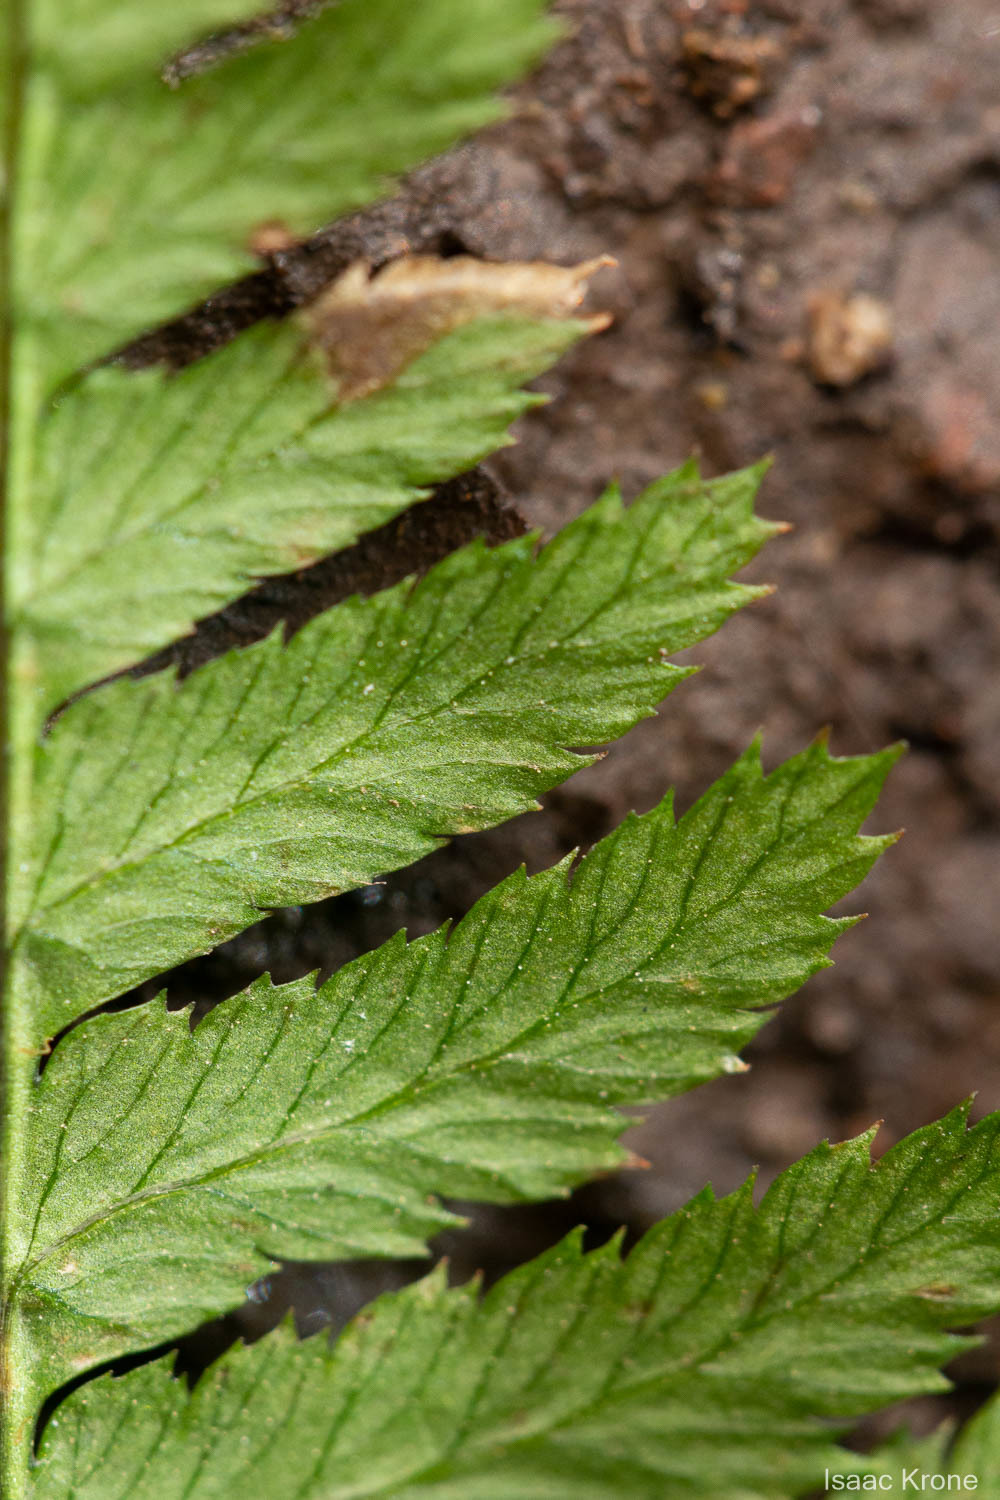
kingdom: Plantae
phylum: Tracheophyta
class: Polypodiopsida
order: Polypodiales
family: Dryopteridaceae
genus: Dryopteris
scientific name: Dryopteris arguta
